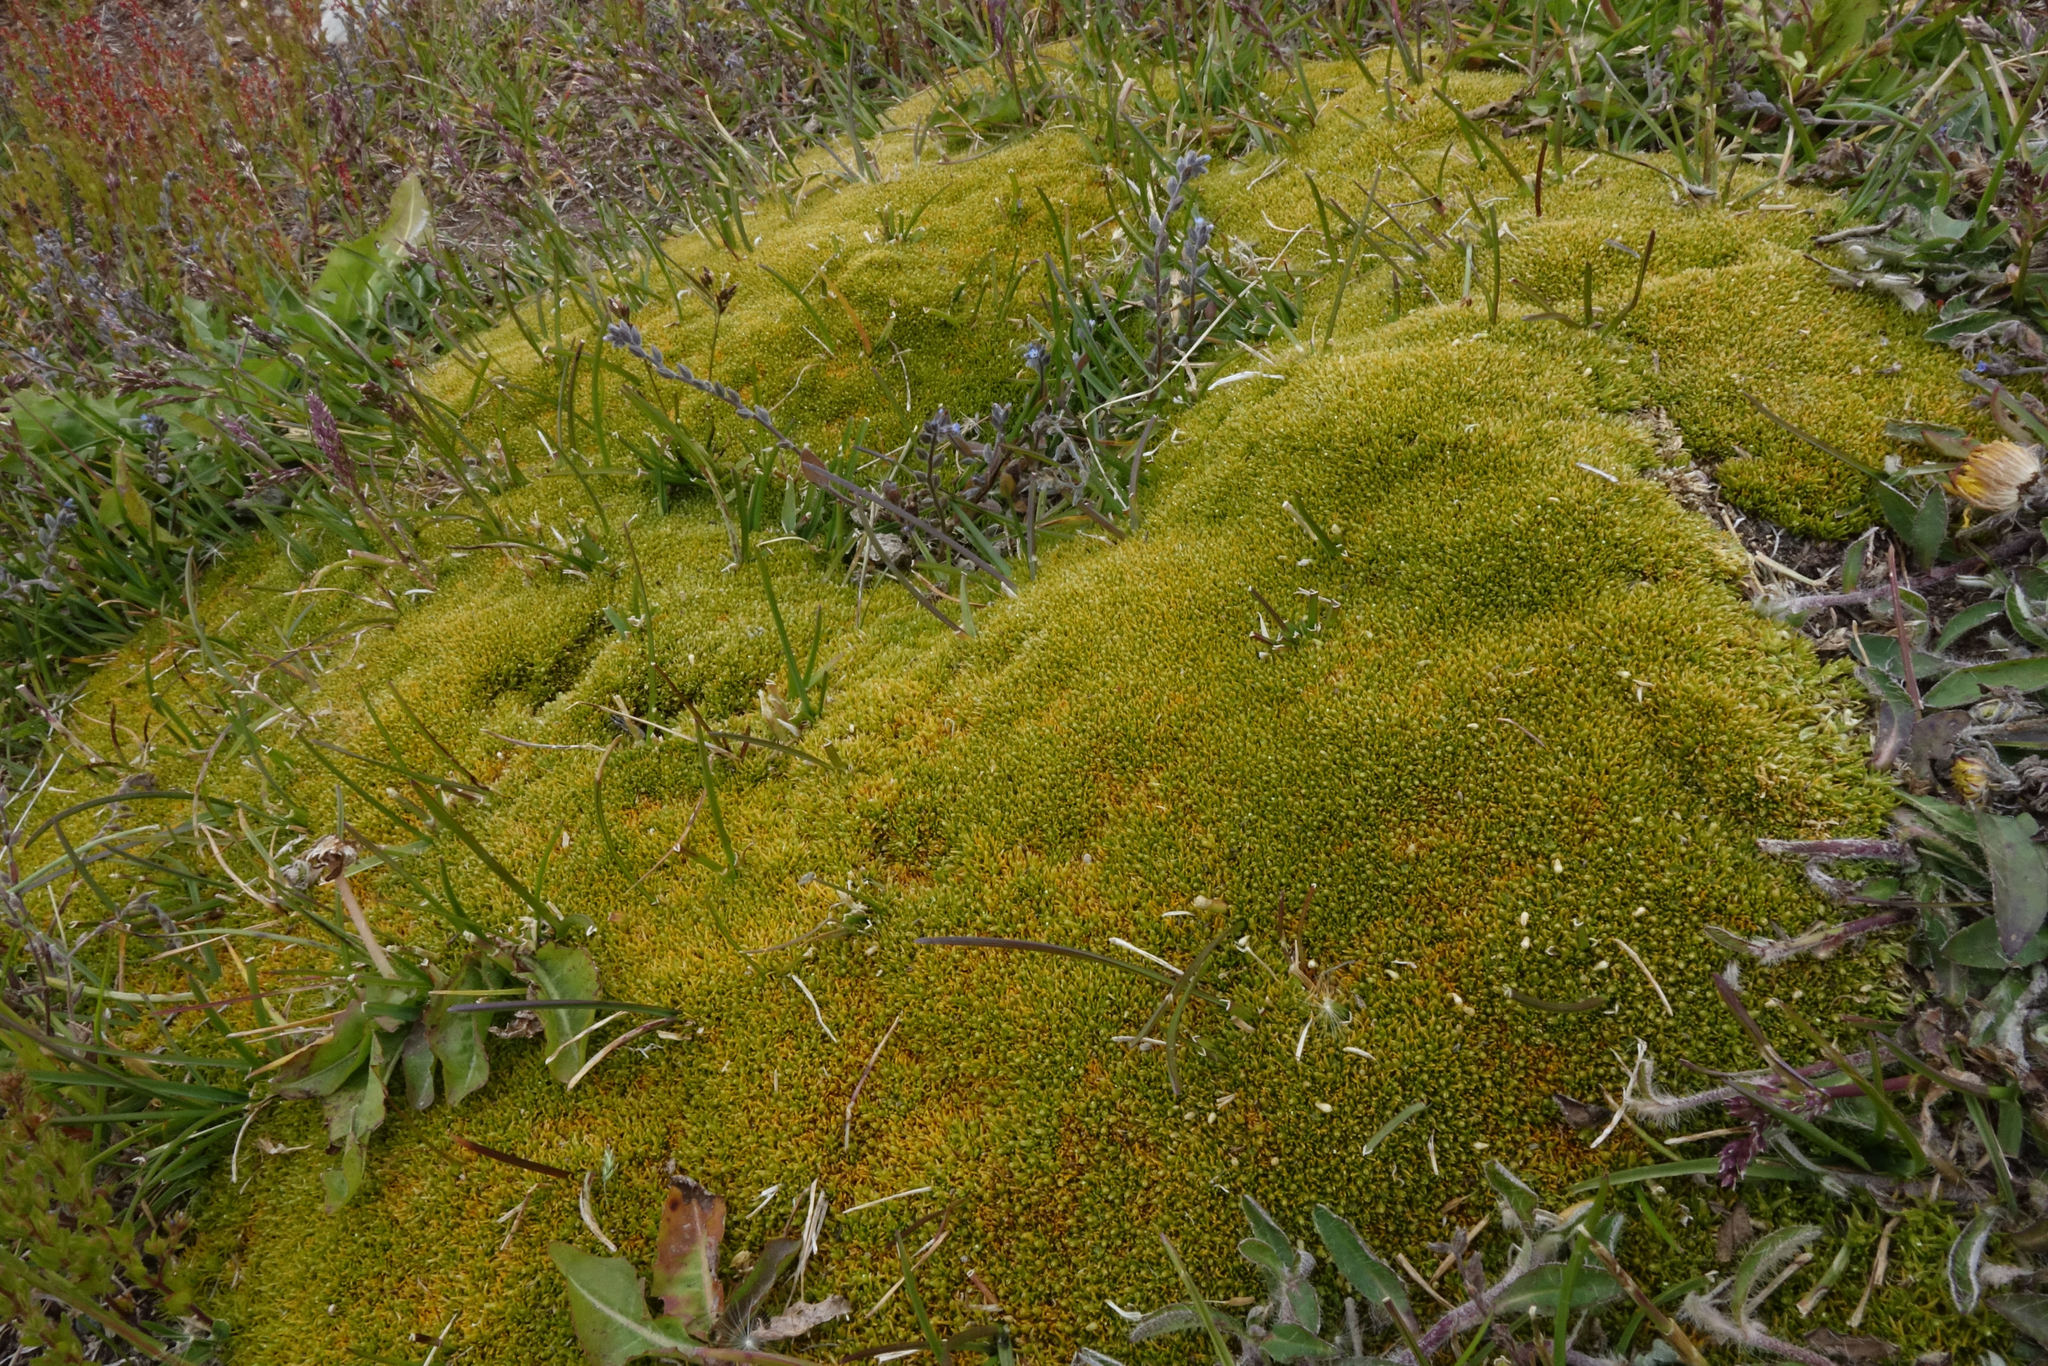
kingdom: Plantae
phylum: Tracheophyta
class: Magnoliopsida
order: Caryophyllales
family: Caryophyllaceae
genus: Scleranthus
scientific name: Scleranthus uniflorus
